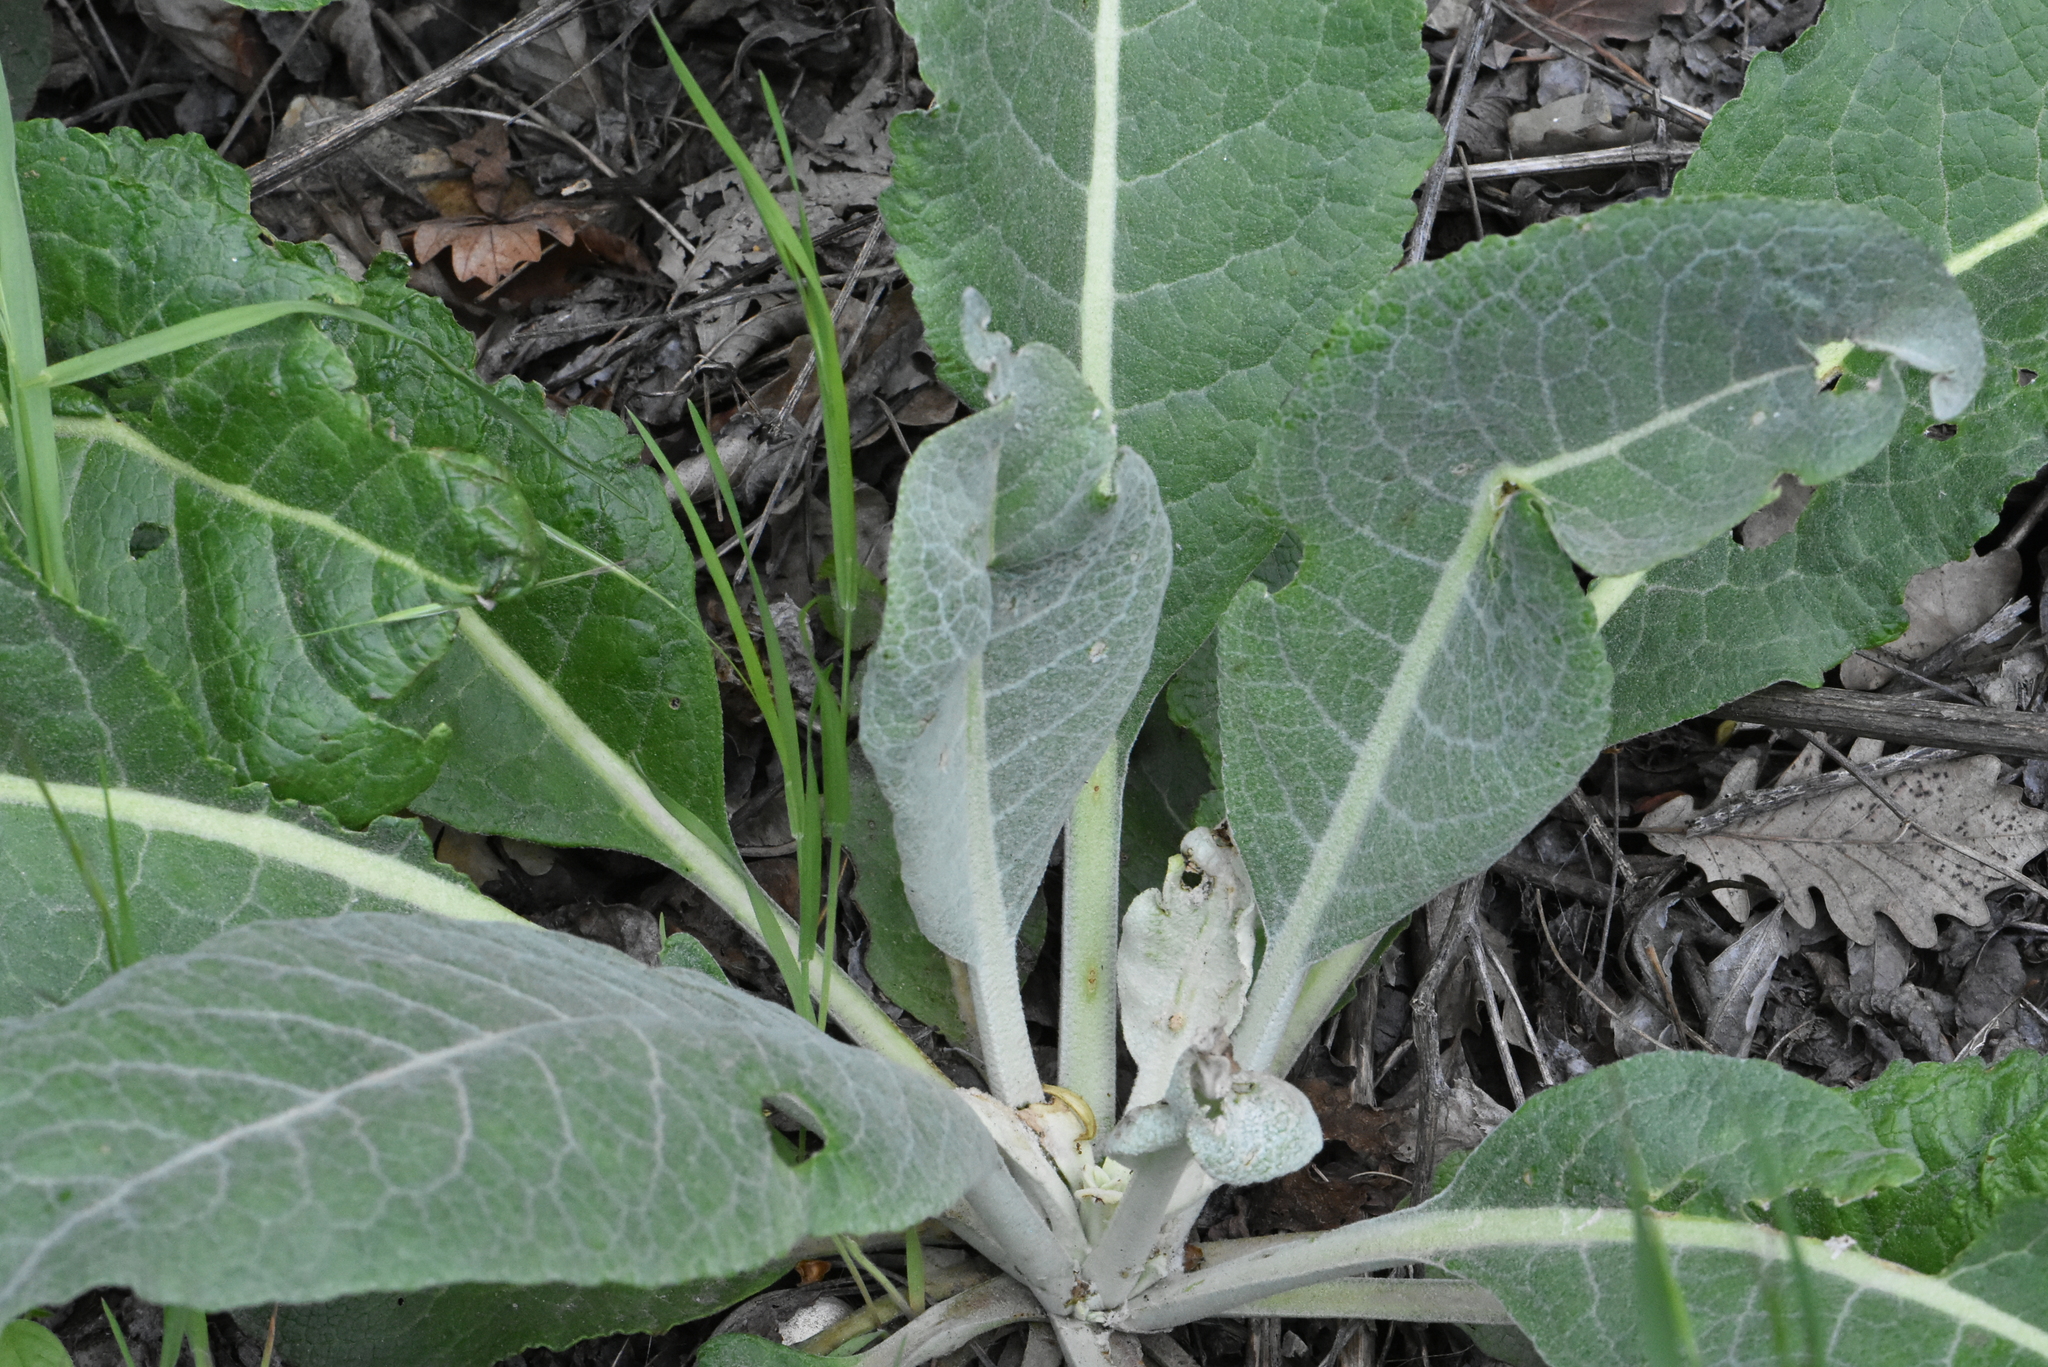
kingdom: Plantae
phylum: Tracheophyta
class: Magnoliopsida
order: Lamiales
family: Scrophulariaceae
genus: Verbascum
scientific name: Verbascum gnaphalodes
